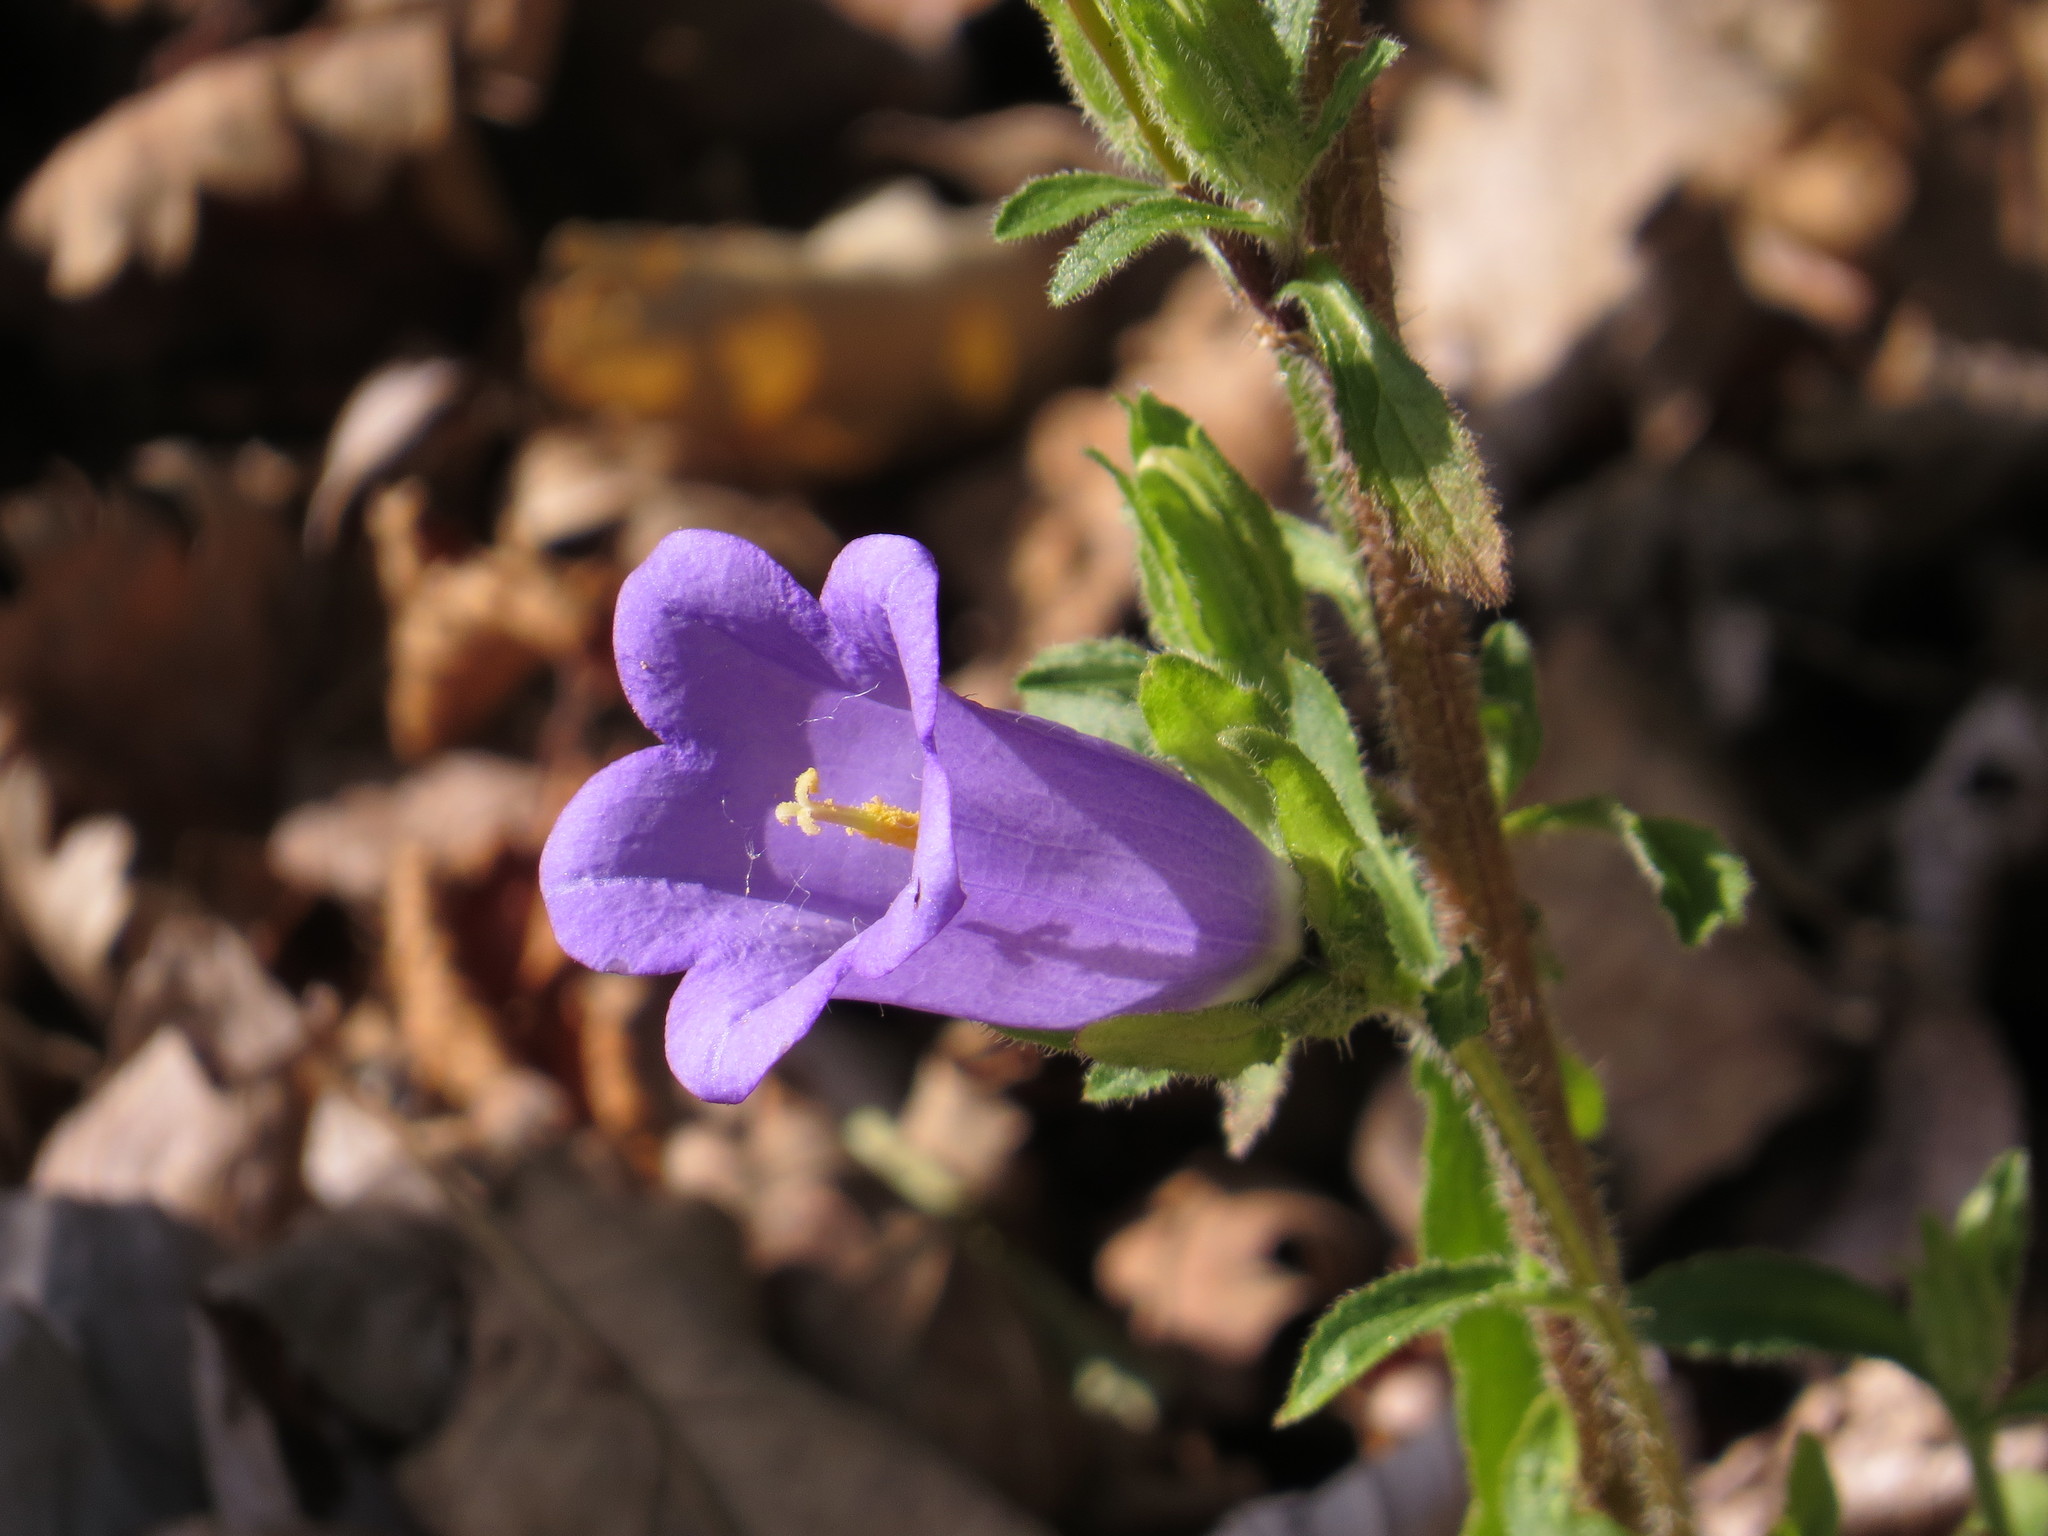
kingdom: Plantae
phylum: Tracheophyta
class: Magnoliopsida
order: Asterales
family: Campanulaceae
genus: Campanula
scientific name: Campanula medium
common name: Canterbury bells
